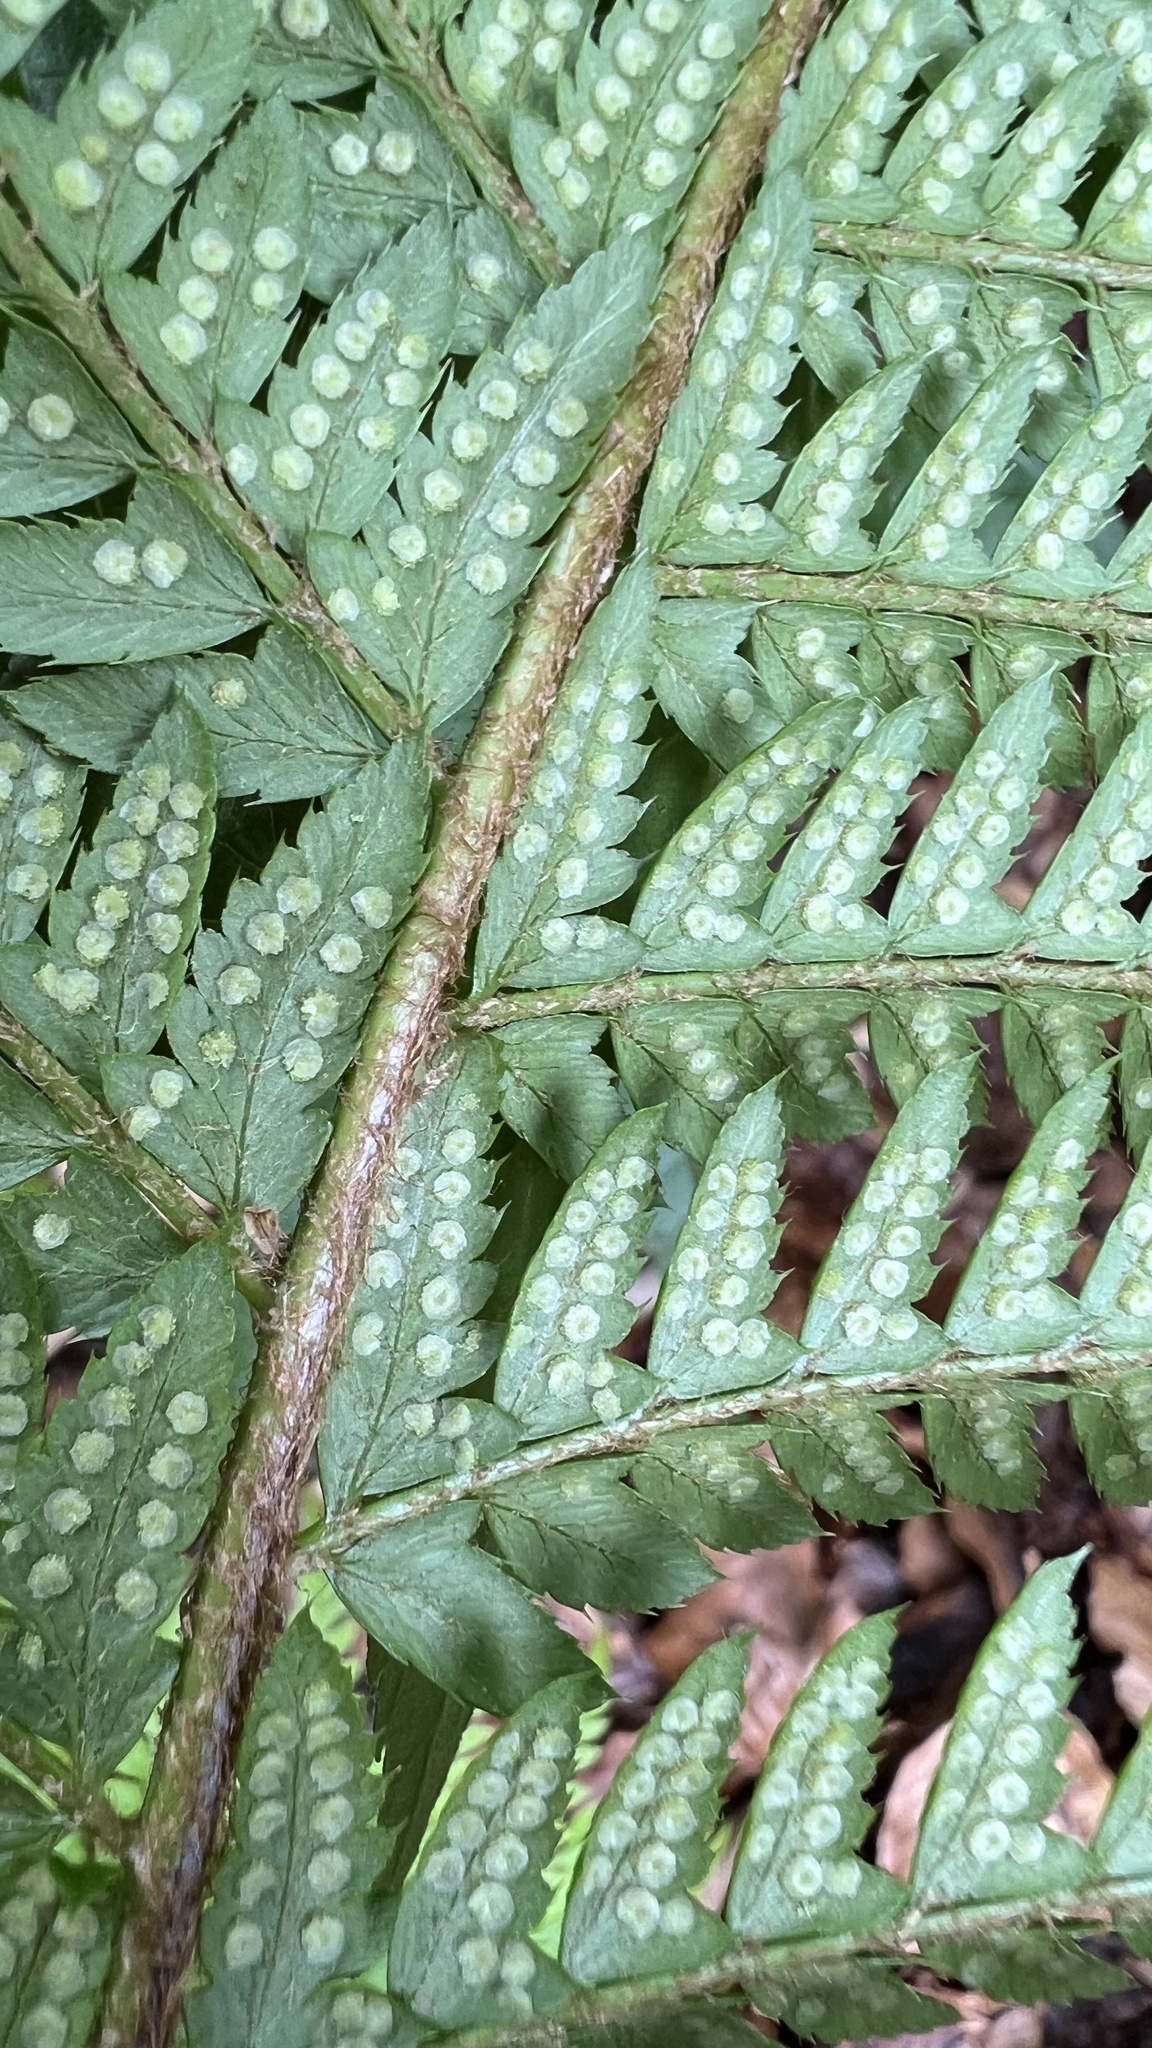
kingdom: Plantae
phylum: Tracheophyta
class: Polypodiopsida
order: Polypodiales
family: Dryopteridaceae
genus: Polystichum
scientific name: Polystichum aculeatum
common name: Hard shield-fern
